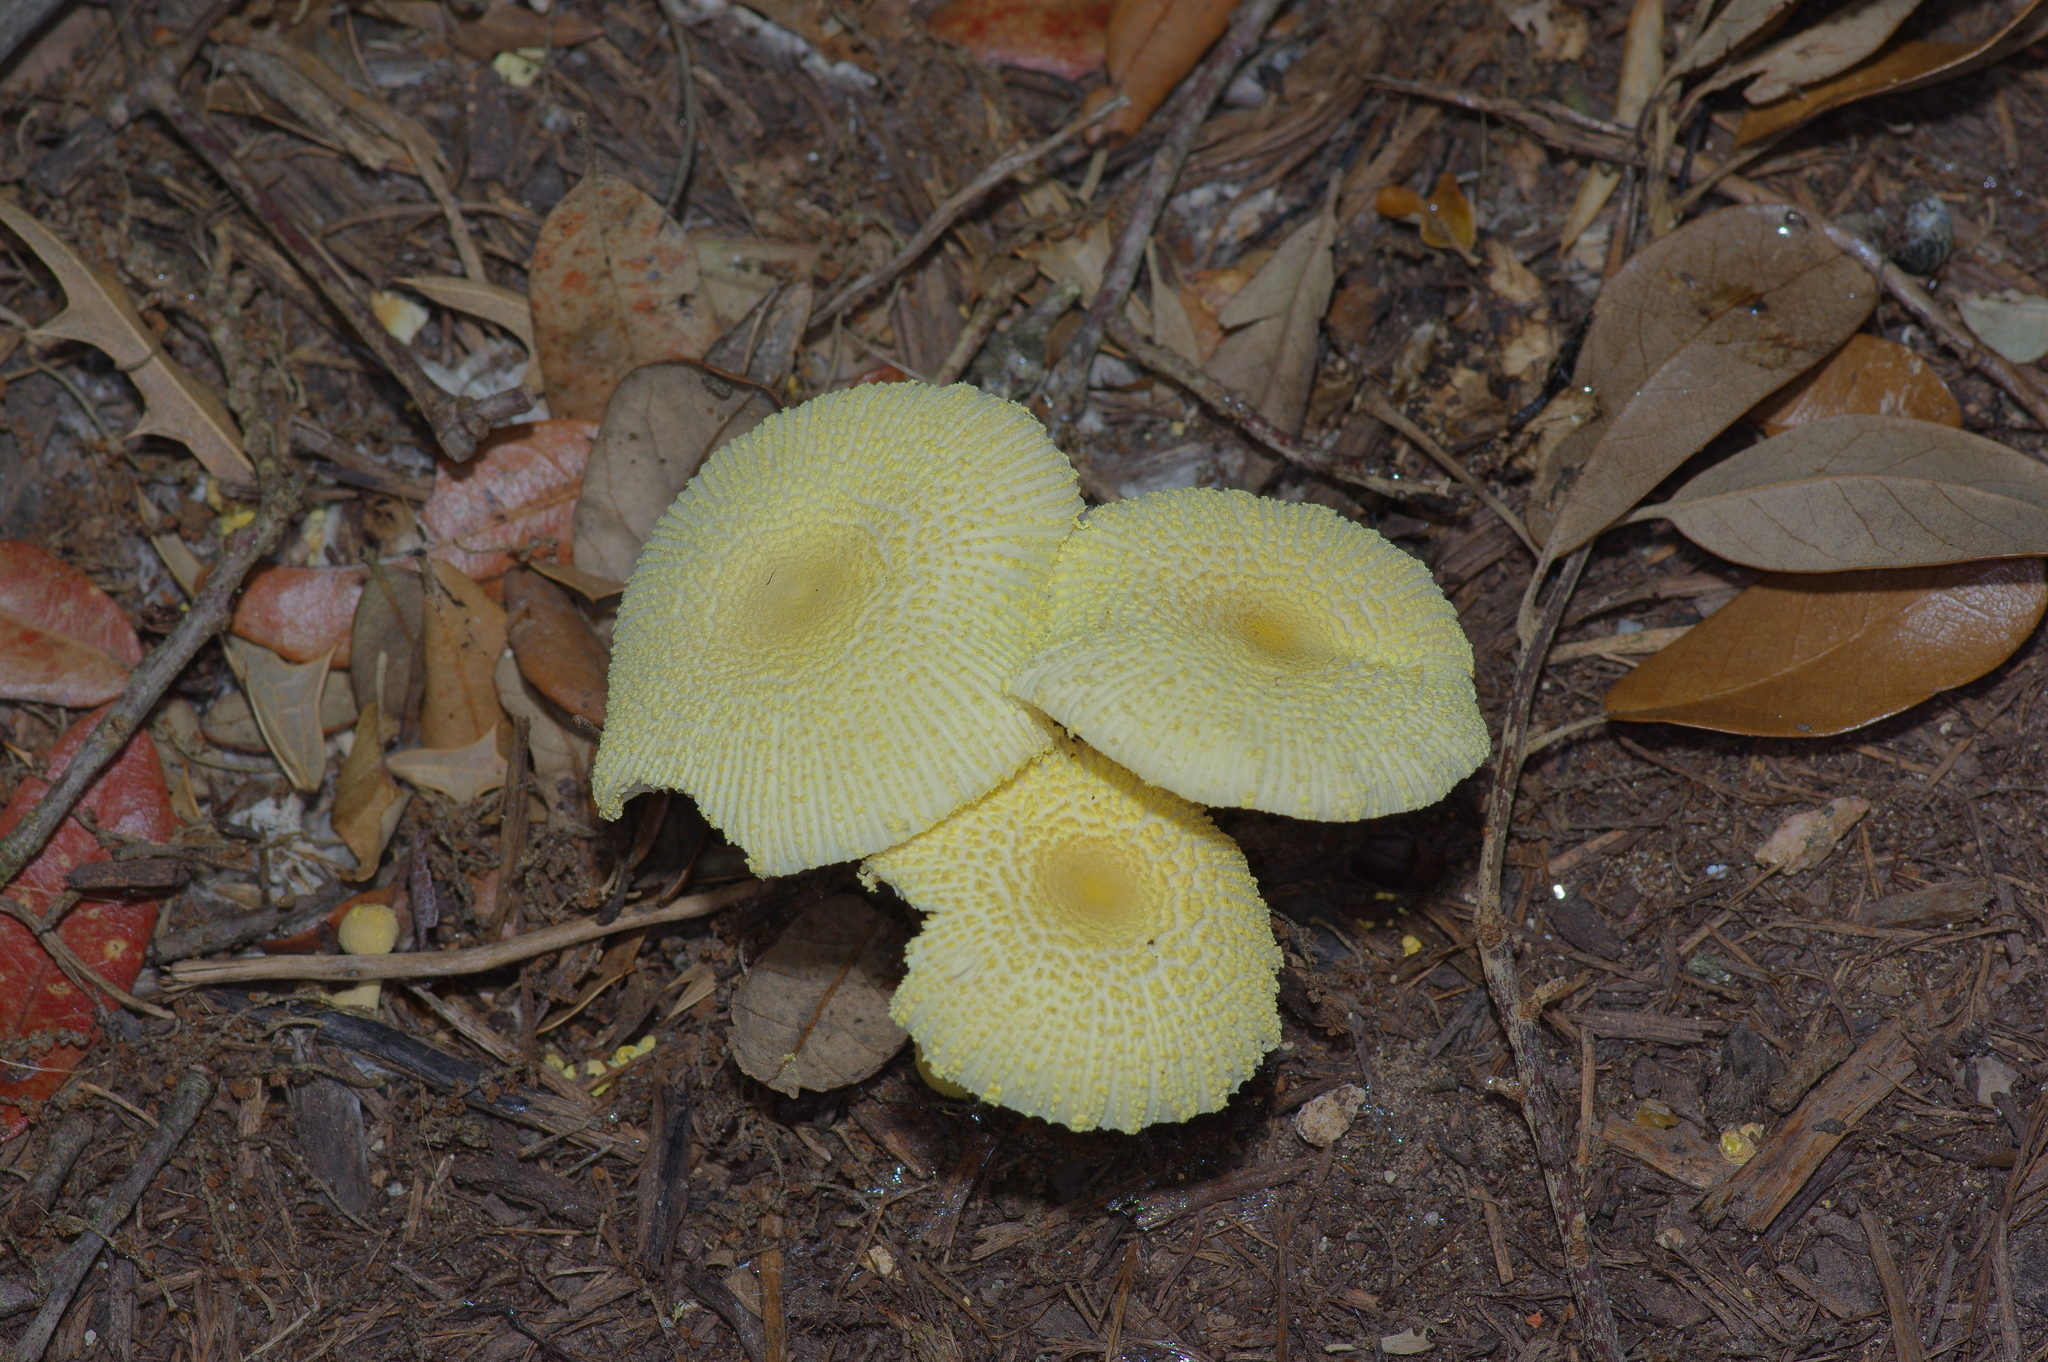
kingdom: Fungi
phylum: Basidiomycota
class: Agaricomycetes
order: Agaricales
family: Agaricaceae
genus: Leucocoprinus
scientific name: Leucocoprinus birnbaumii
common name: Plantpot dapperling
